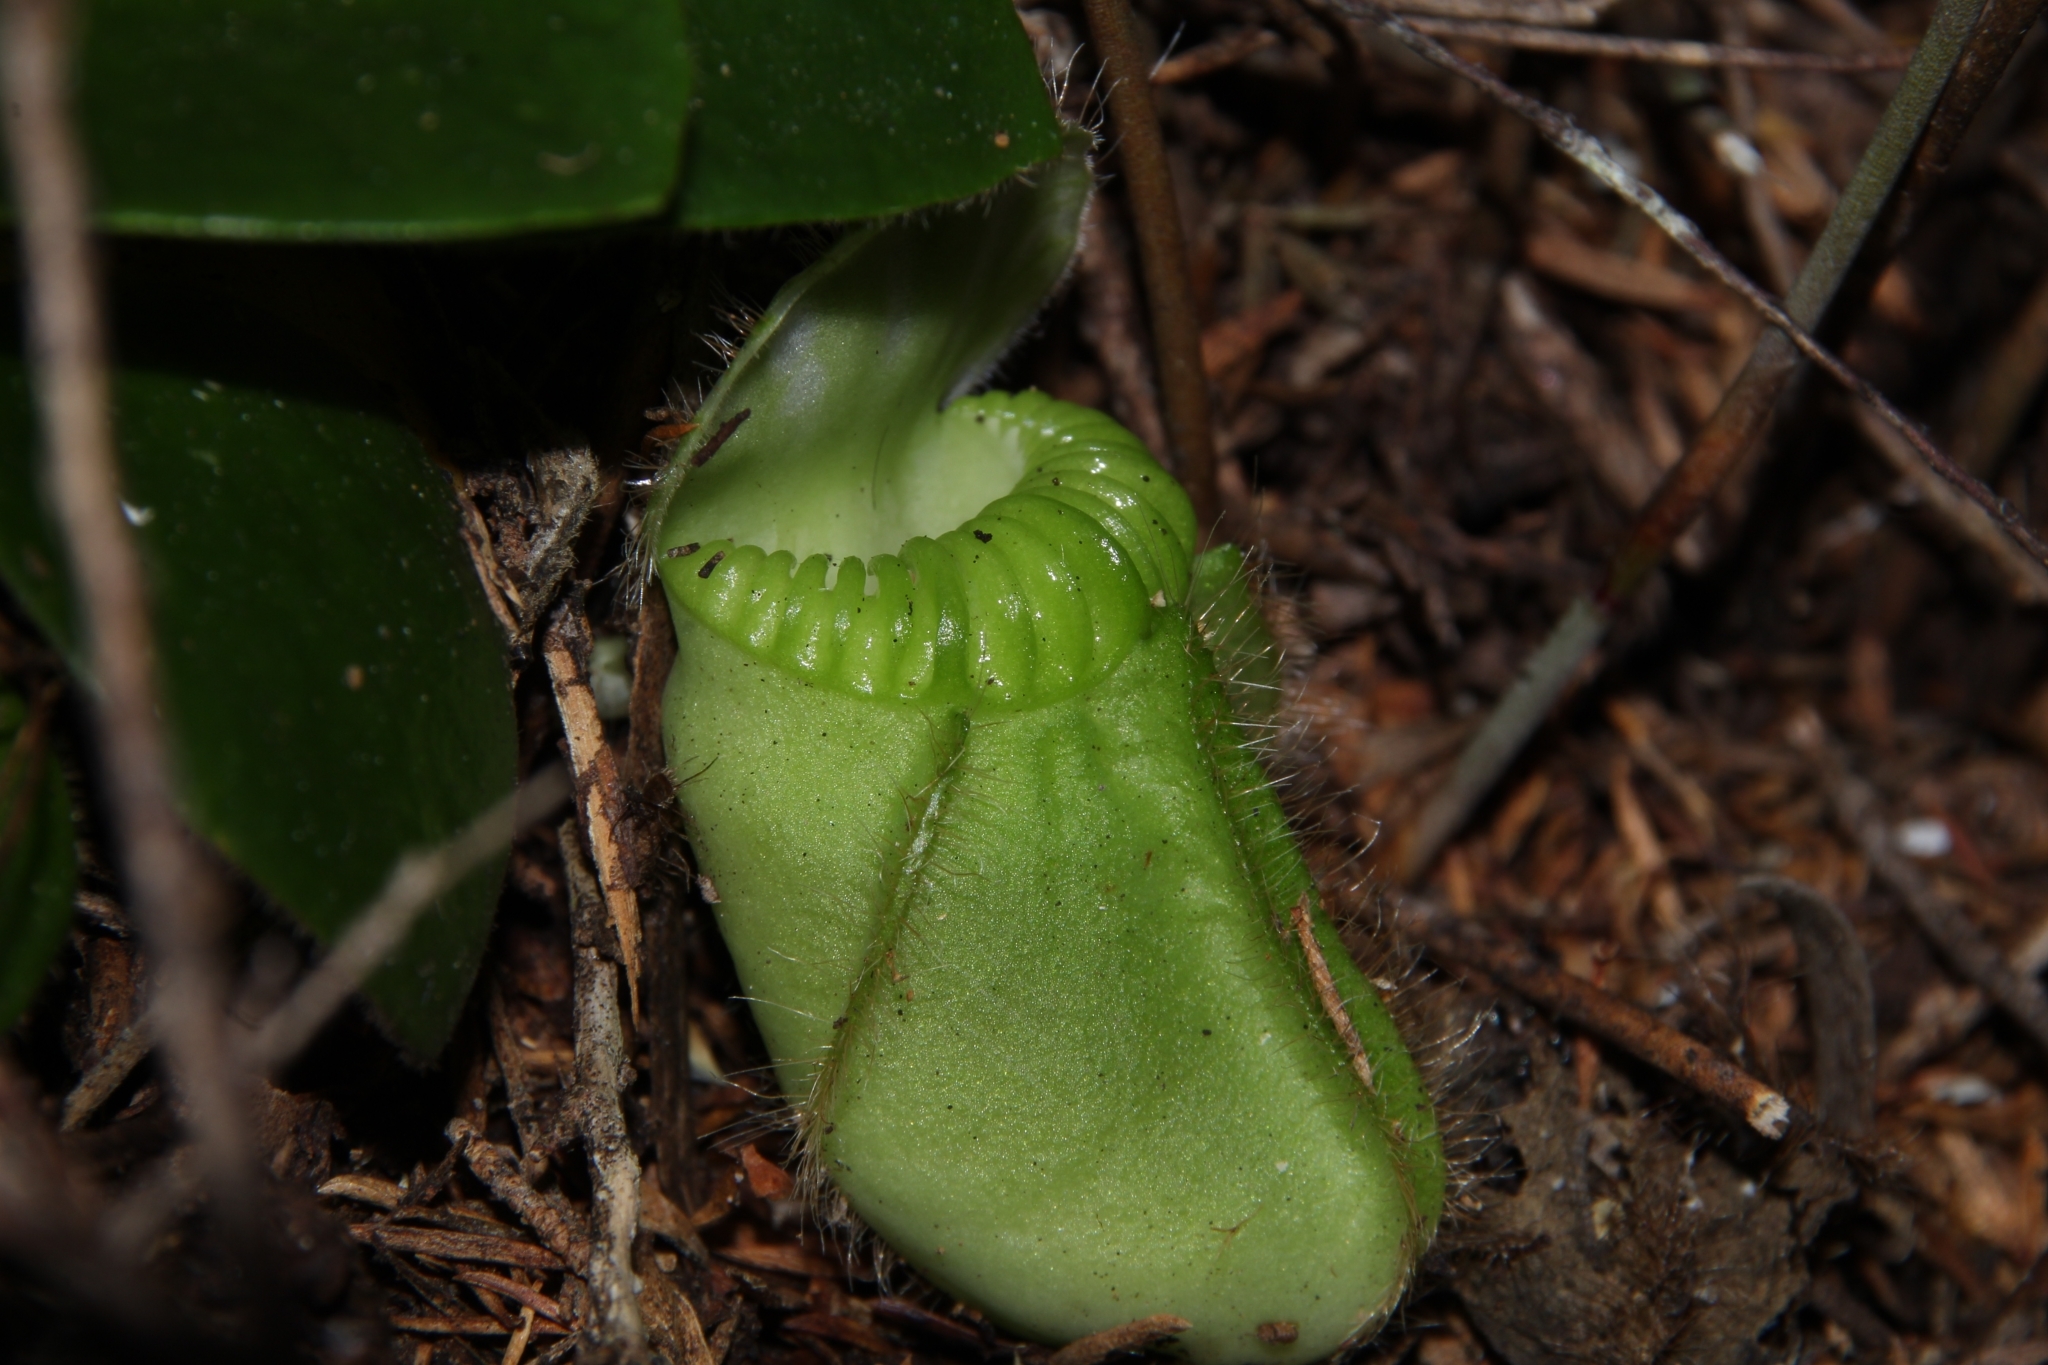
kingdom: Plantae
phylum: Tracheophyta
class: Magnoliopsida
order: Oxalidales
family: Cephalotaceae
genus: Cephalotus
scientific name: Cephalotus follicularis
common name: Australian pitcher plant
